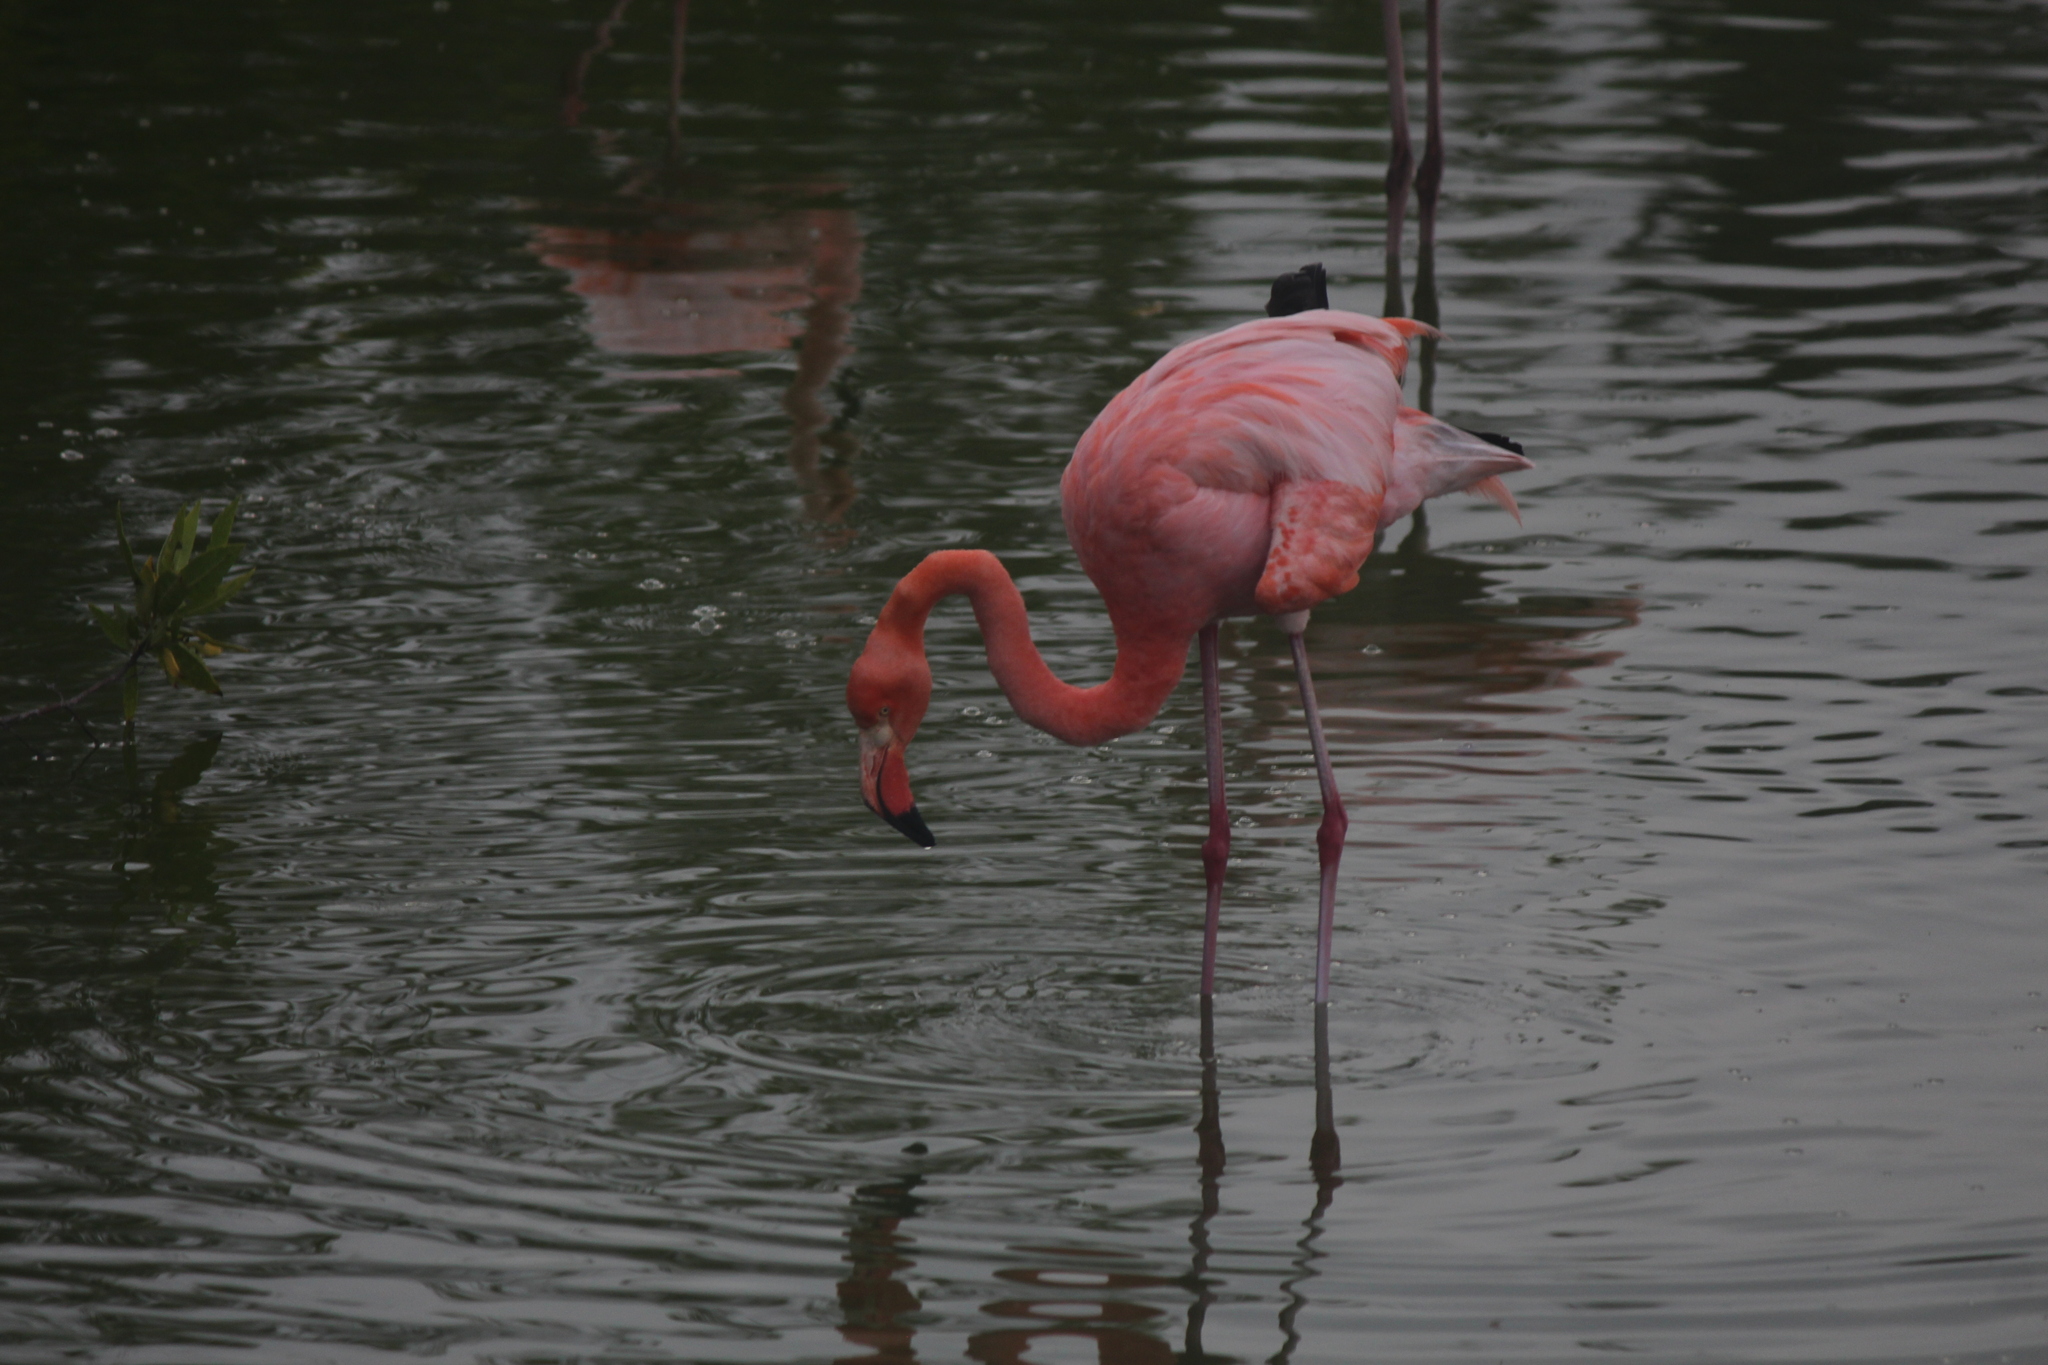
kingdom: Animalia
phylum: Chordata
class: Aves
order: Phoenicopteriformes
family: Phoenicopteridae
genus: Phoenicopterus
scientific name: Phoenicopterus ruber
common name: American flamingo
